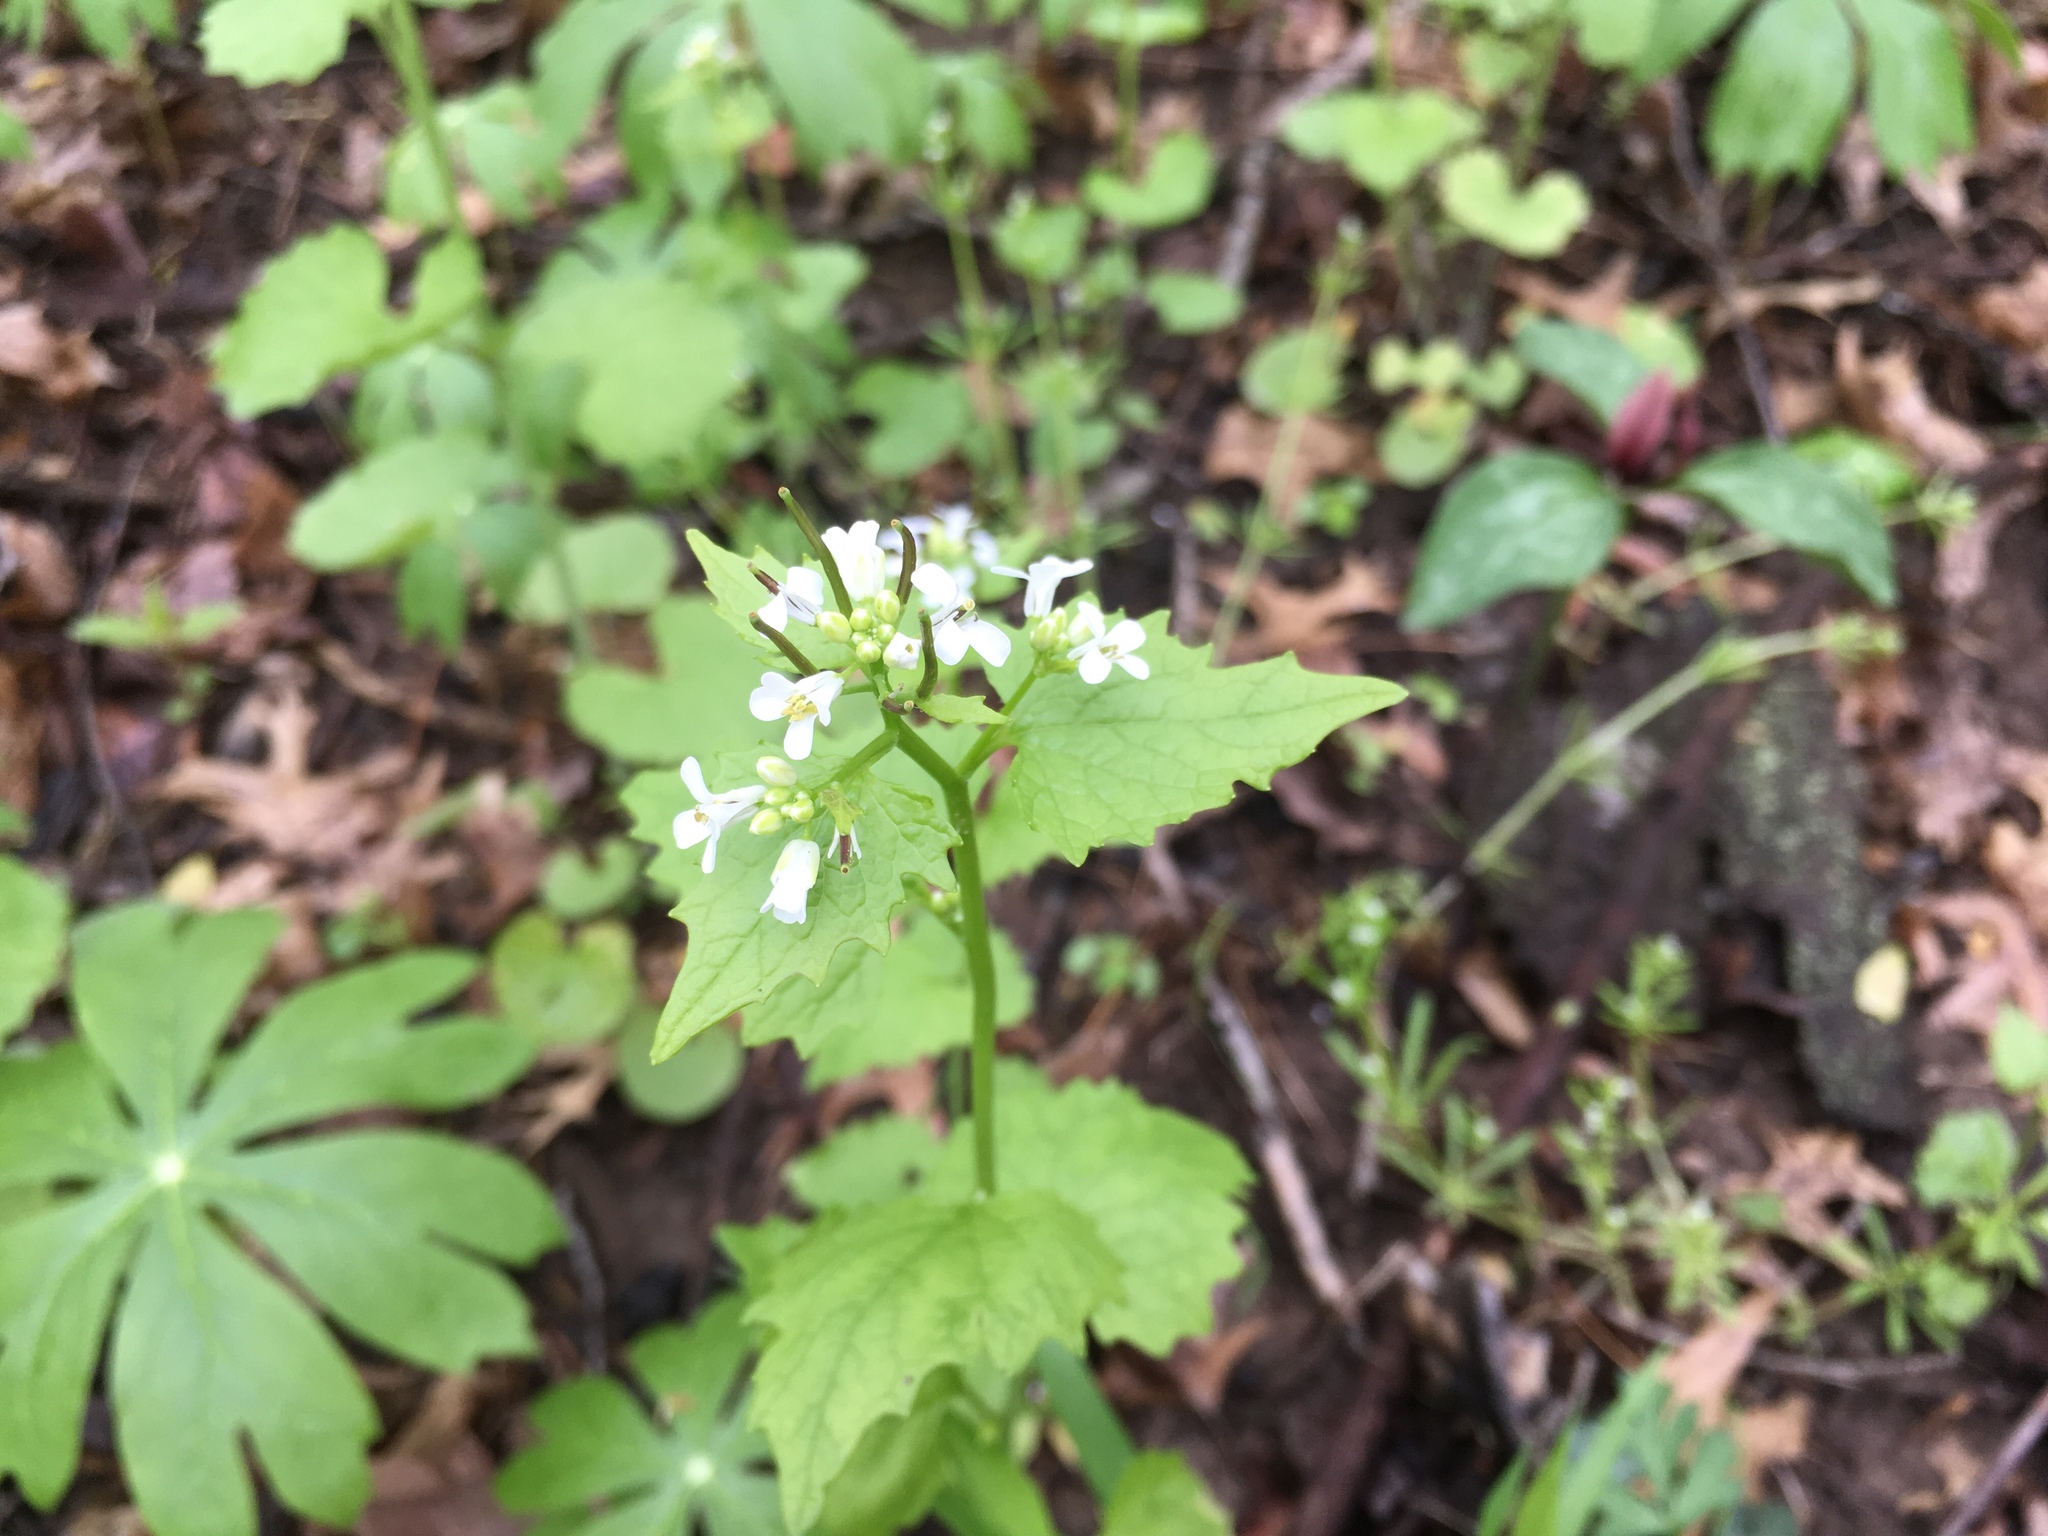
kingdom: Plantae
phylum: Tracheophyta
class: Magnoliopsida
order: Brassicales
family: Brassicaceae
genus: Alliaria
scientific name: Alliaria petiolata
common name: Garlic mustard
